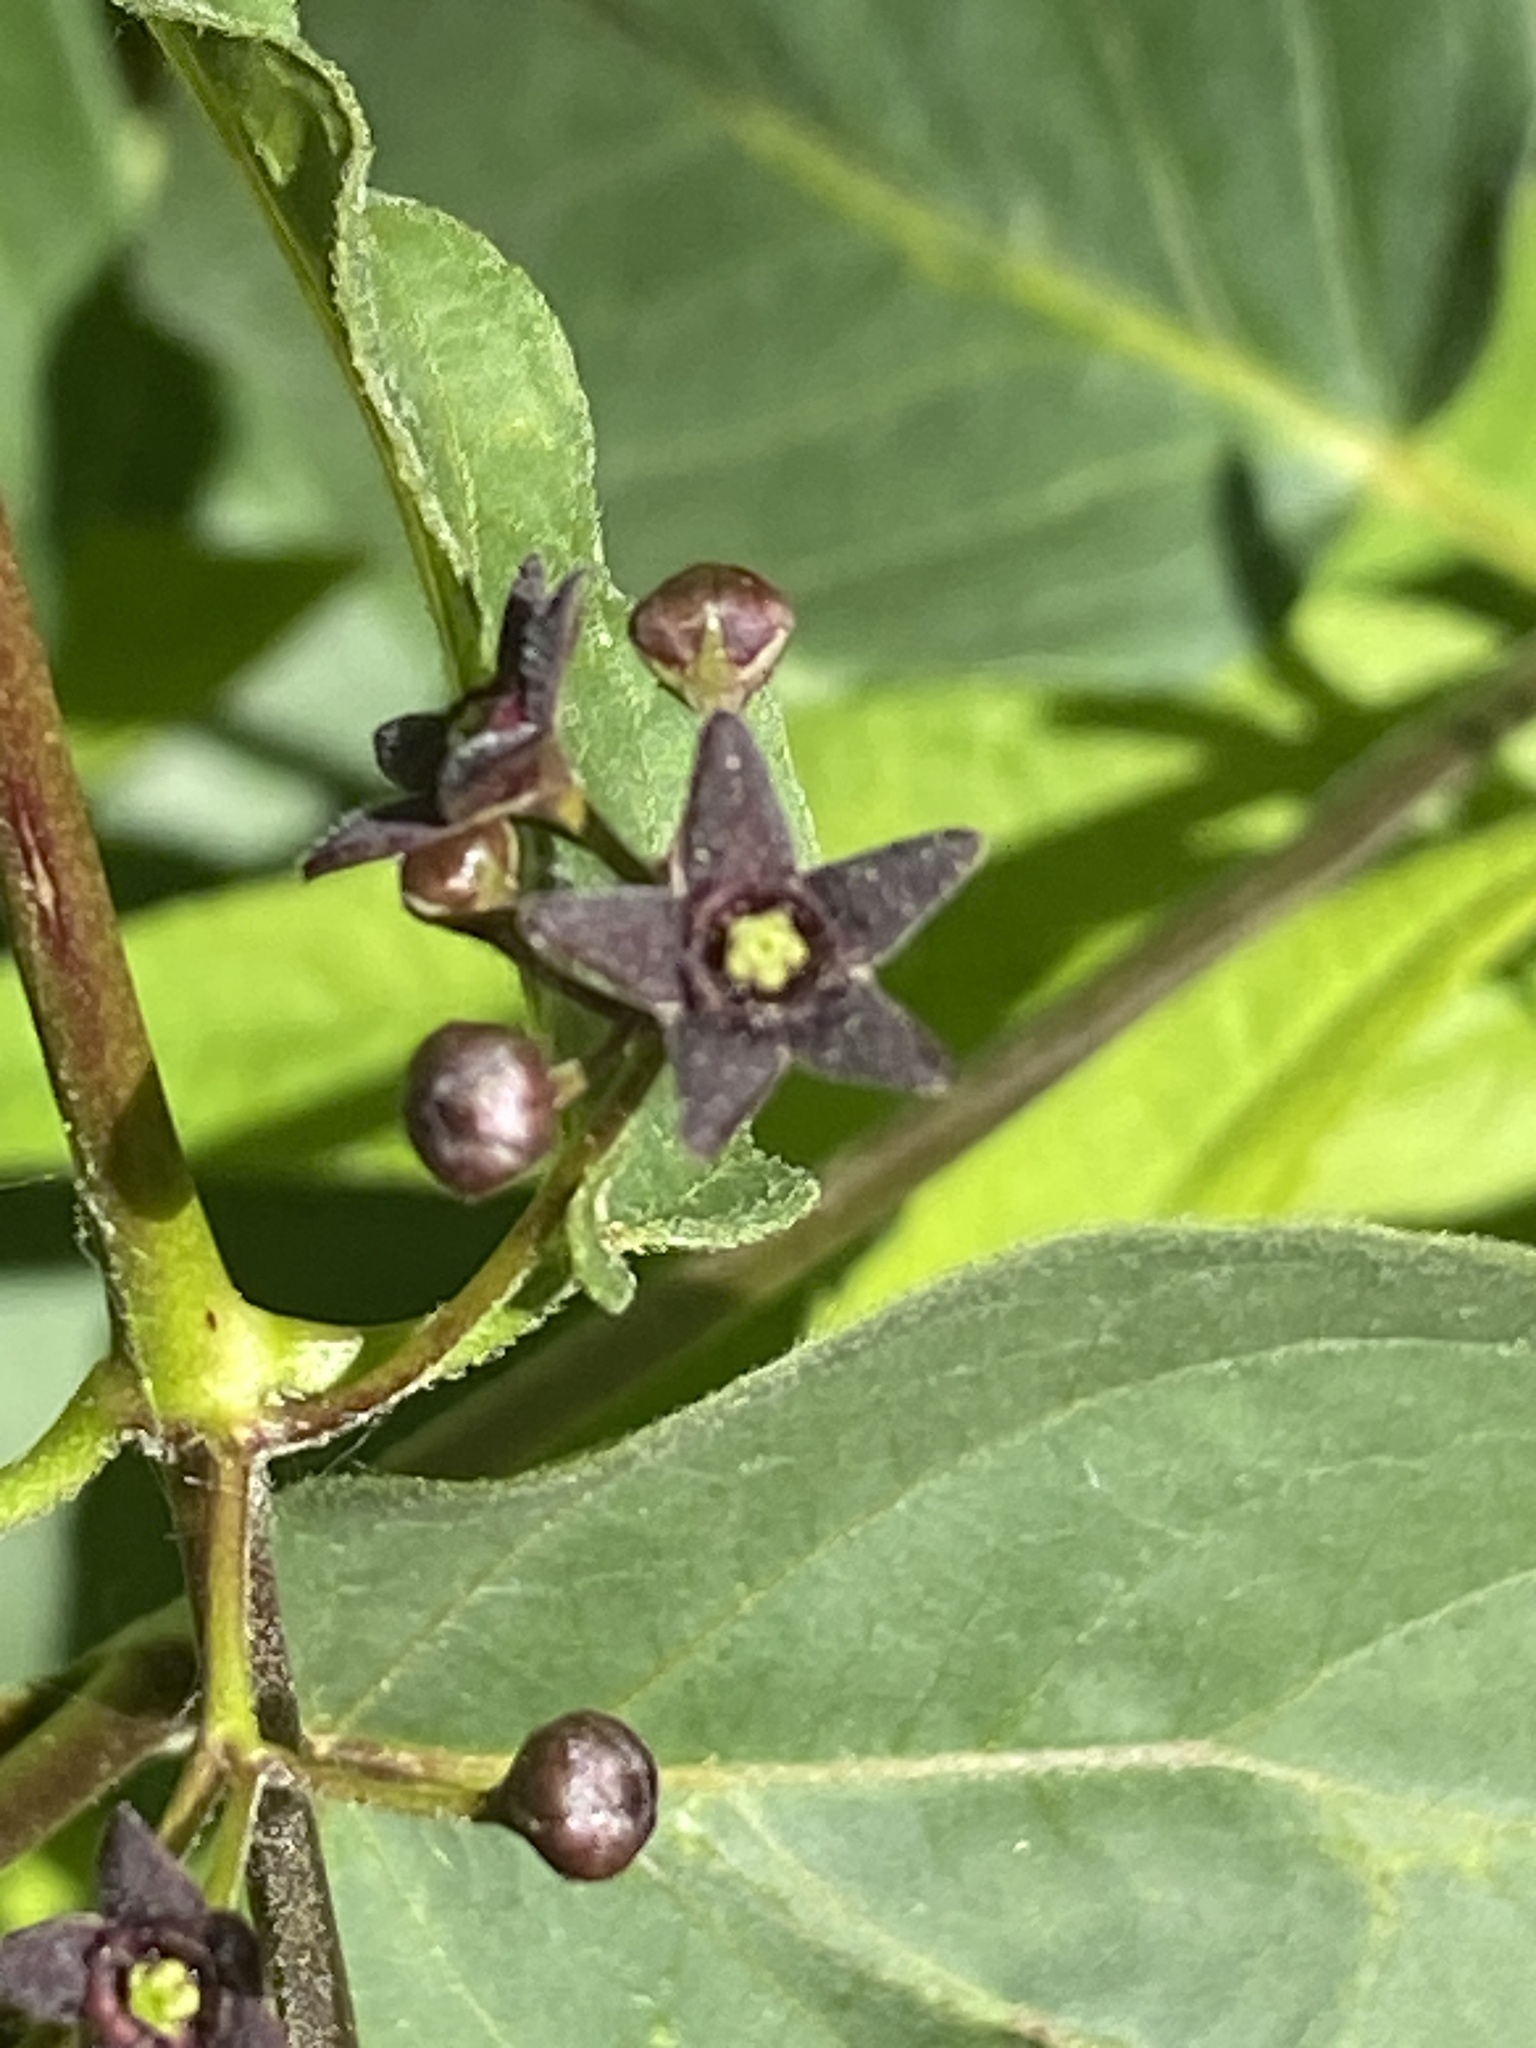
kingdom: Plantae
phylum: Tracheophyta
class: Magnoliopsida
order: Gentianales
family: Apocynaceae
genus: Vincetoxicum
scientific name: Vincetoxicum nigrum
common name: Black swallow-wort
